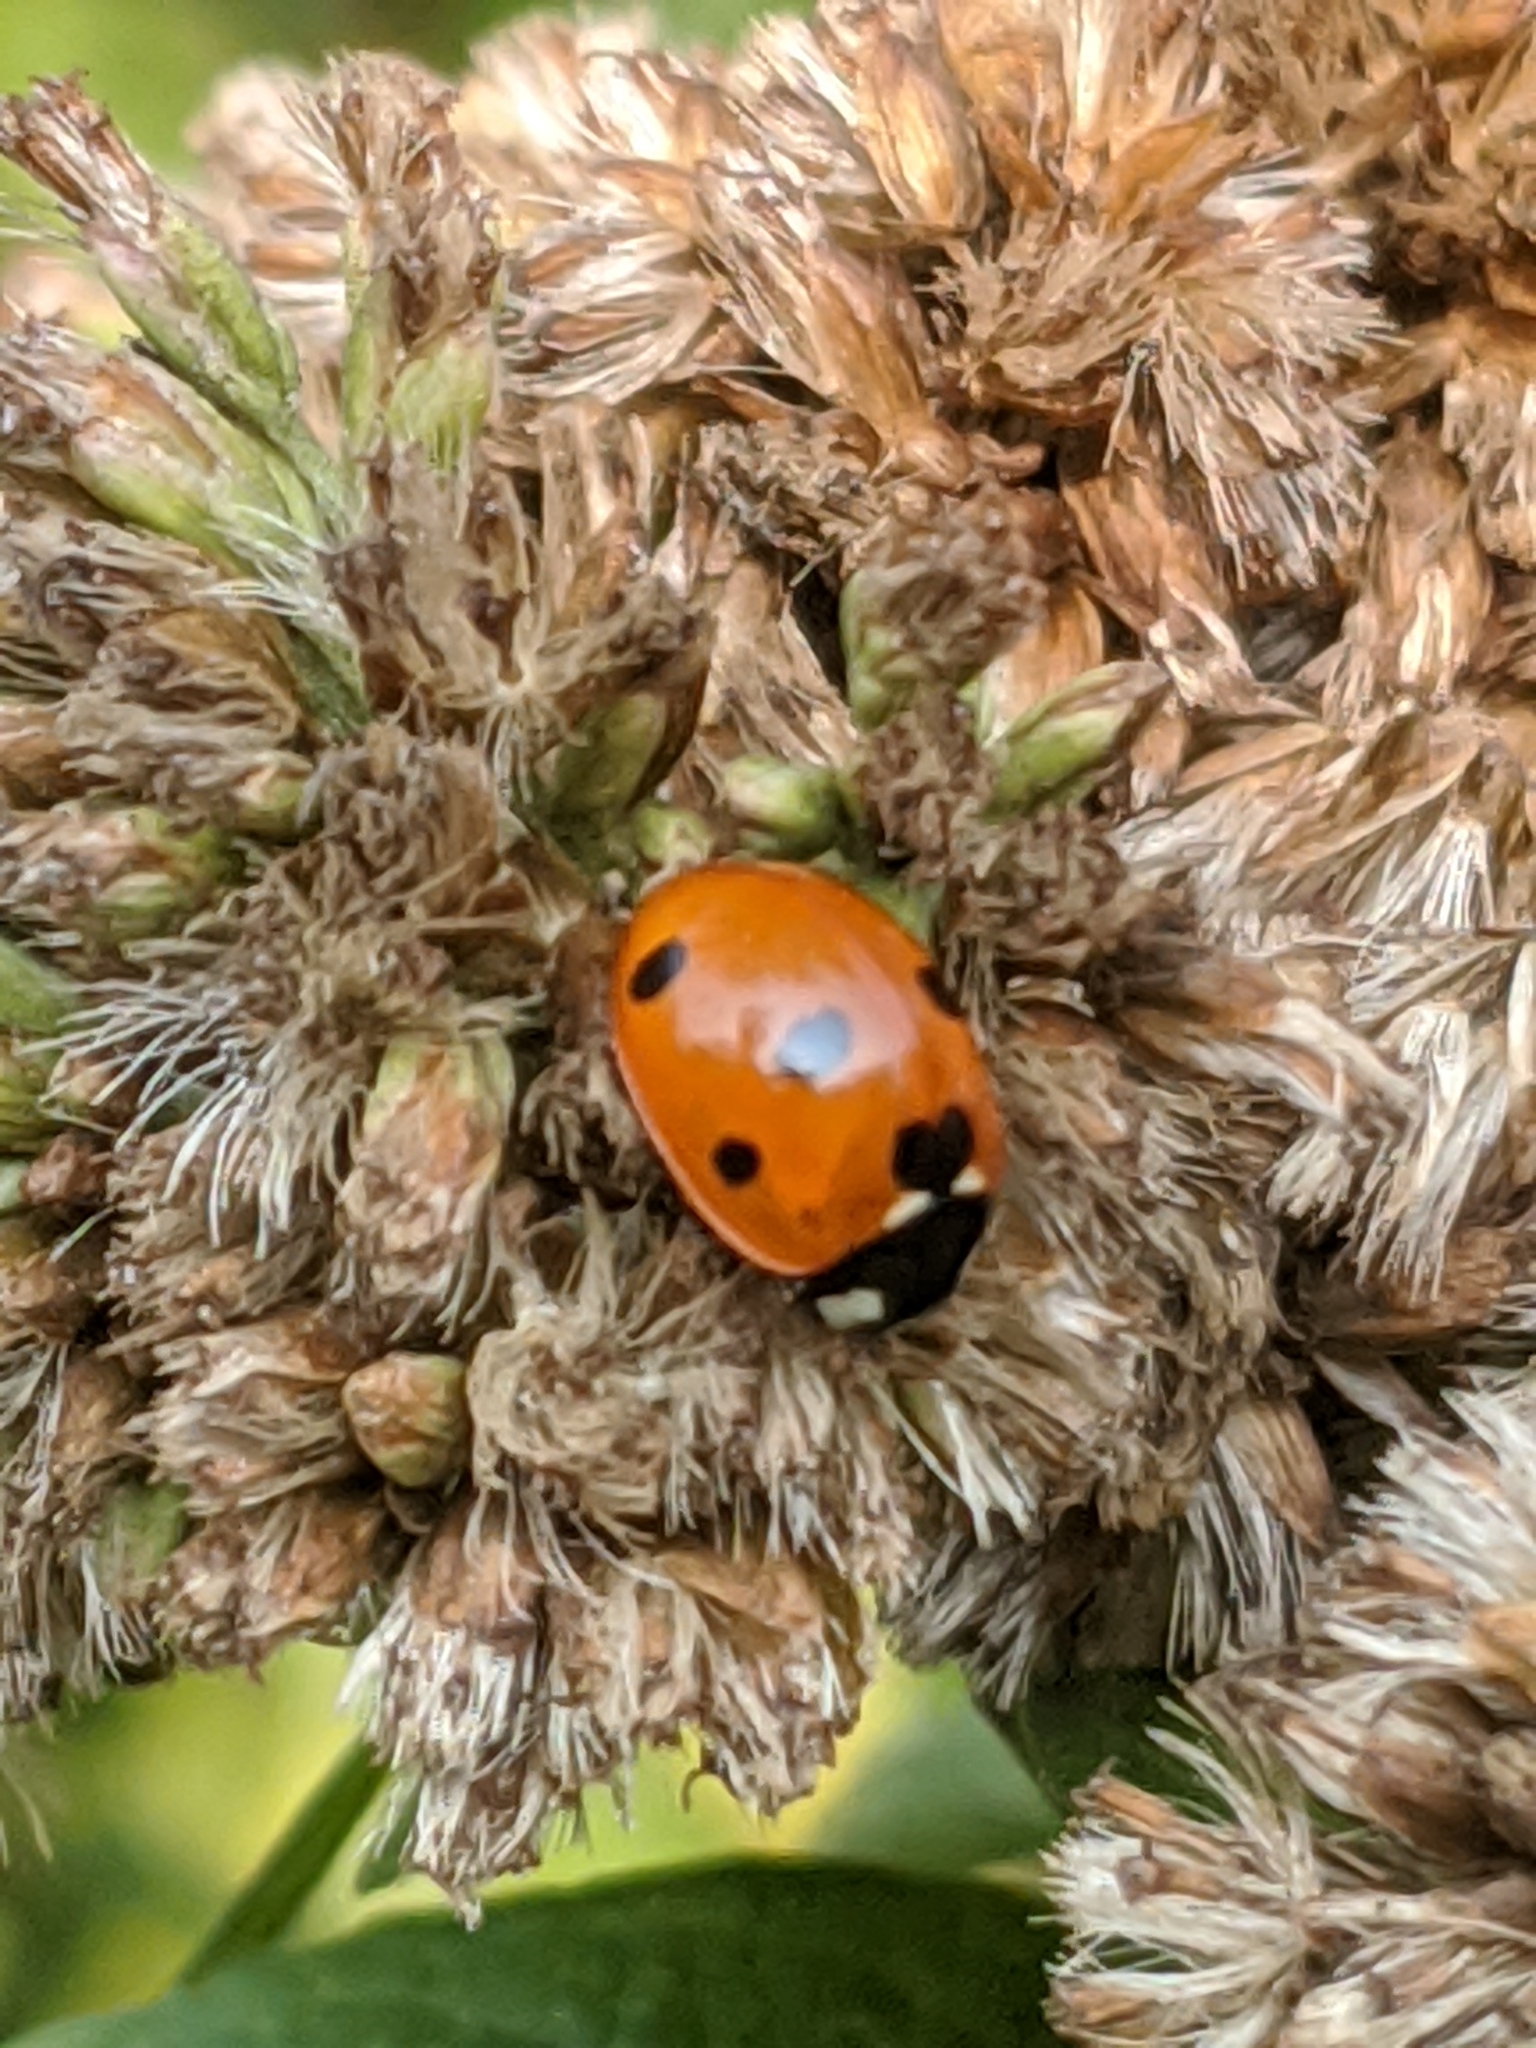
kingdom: Animalia
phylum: Arthropoda
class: Insecta
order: Coleoptera
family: Coccinellidae
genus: Coccinella
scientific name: Coccinella septempunctata
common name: Sevenspotted lady beetle
